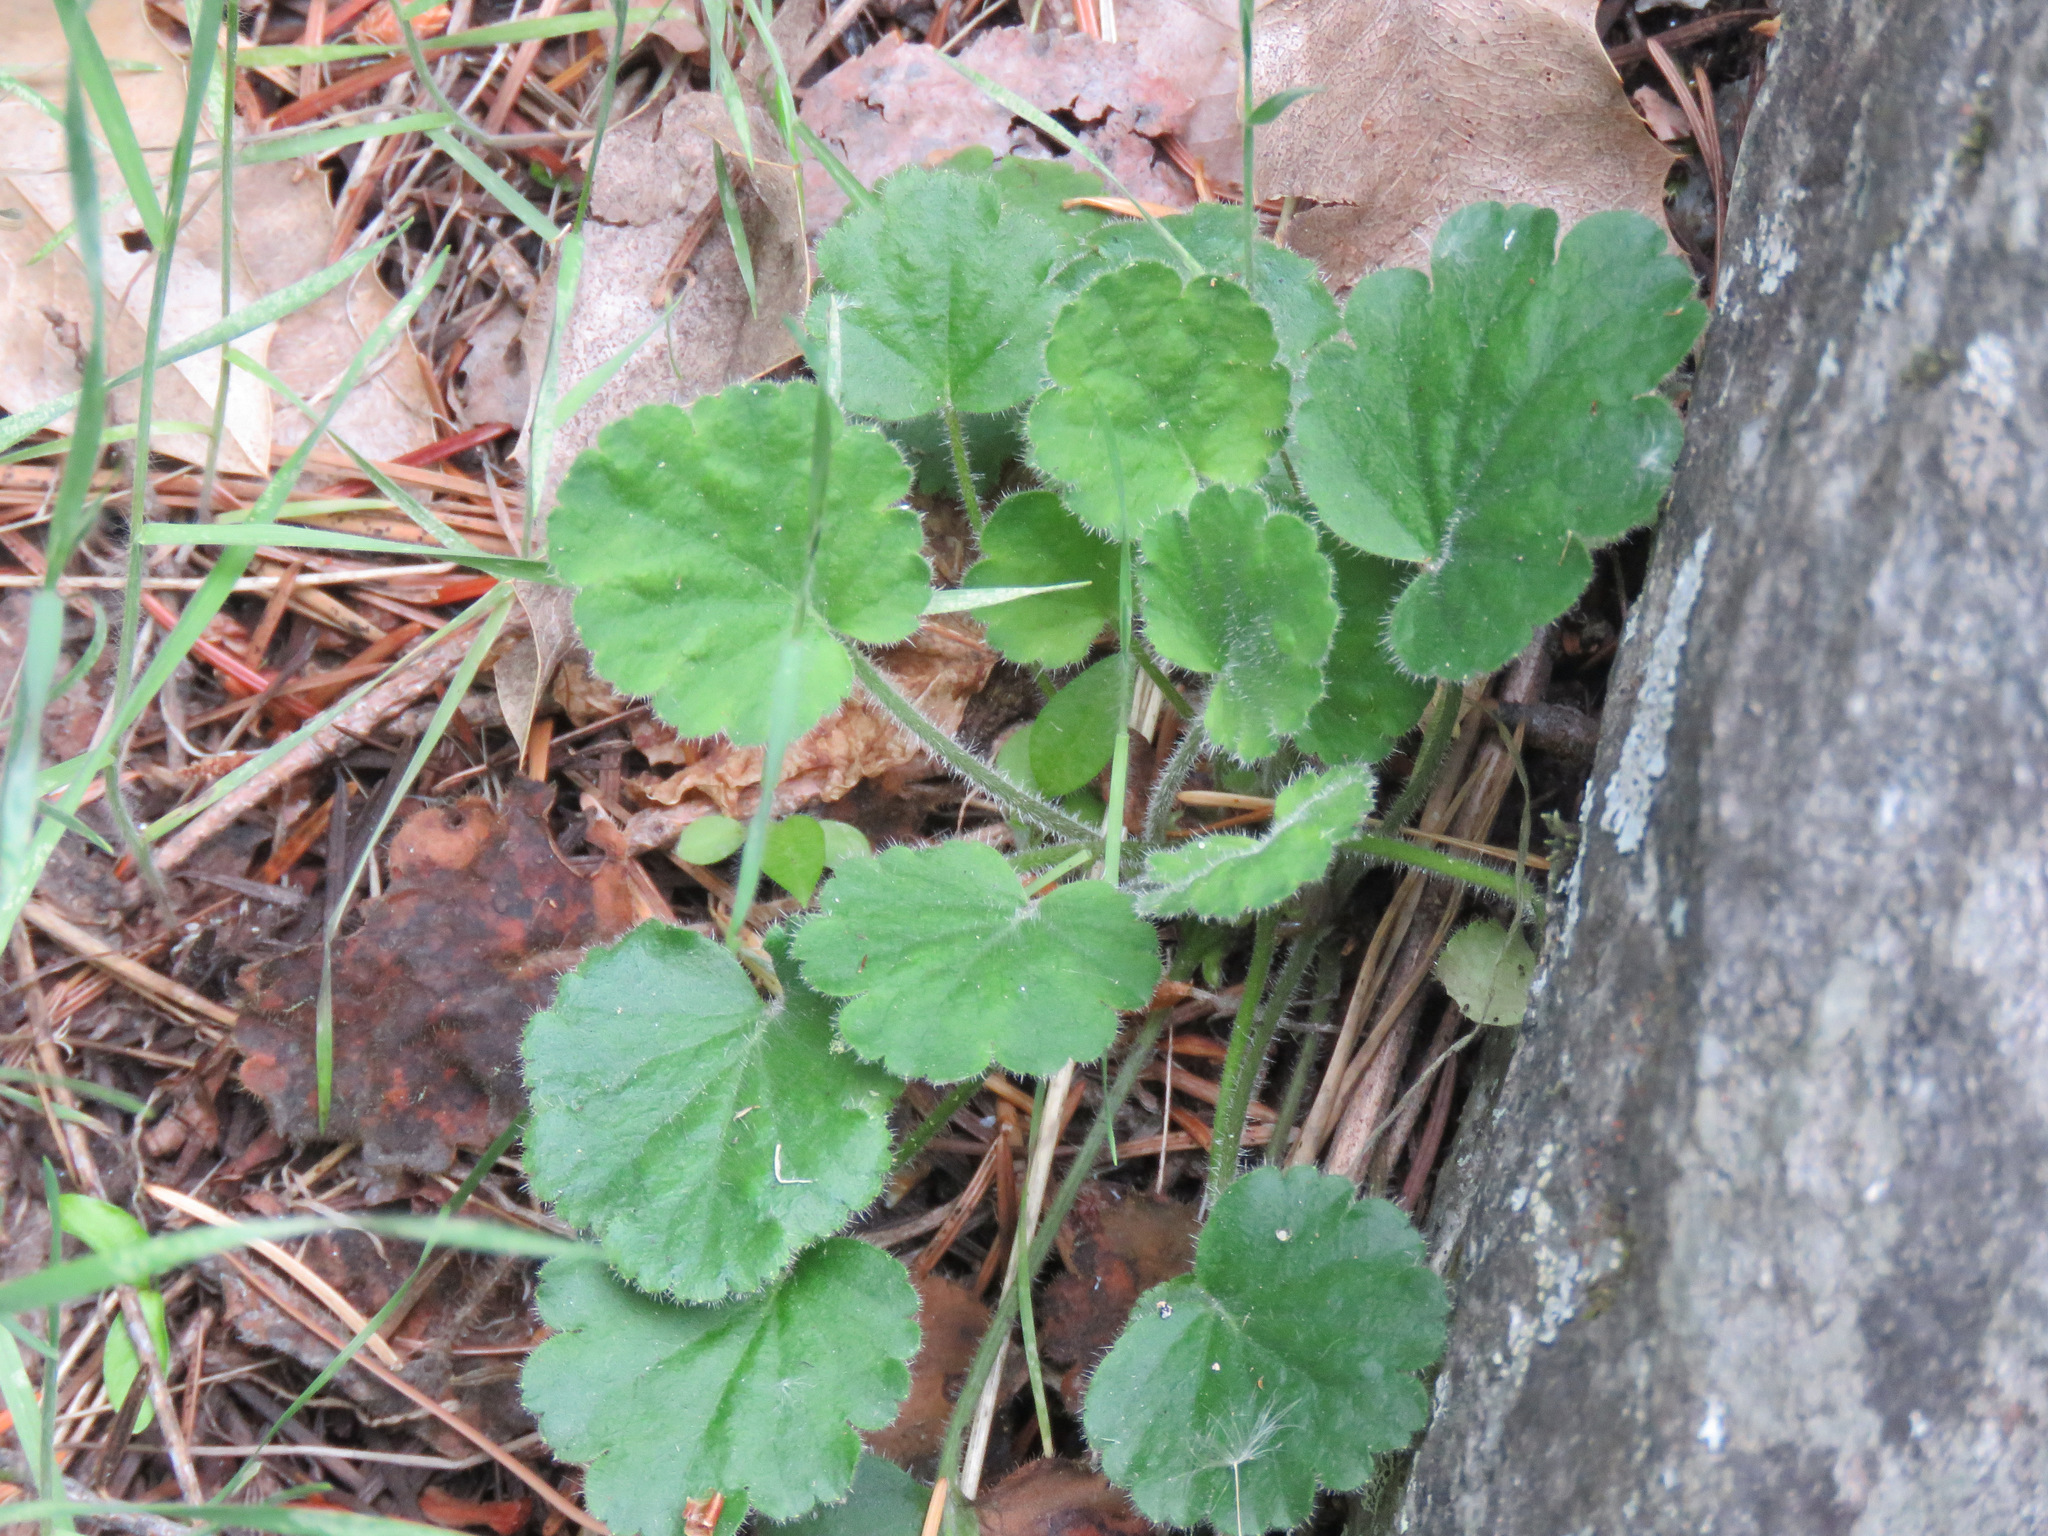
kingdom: Plantae
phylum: Tracheophyta
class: Magnoliopsida
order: Saxifragales
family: Saxifragaceae
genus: Heuchera
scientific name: Heuchera cylindrica
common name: Mat alumroot
